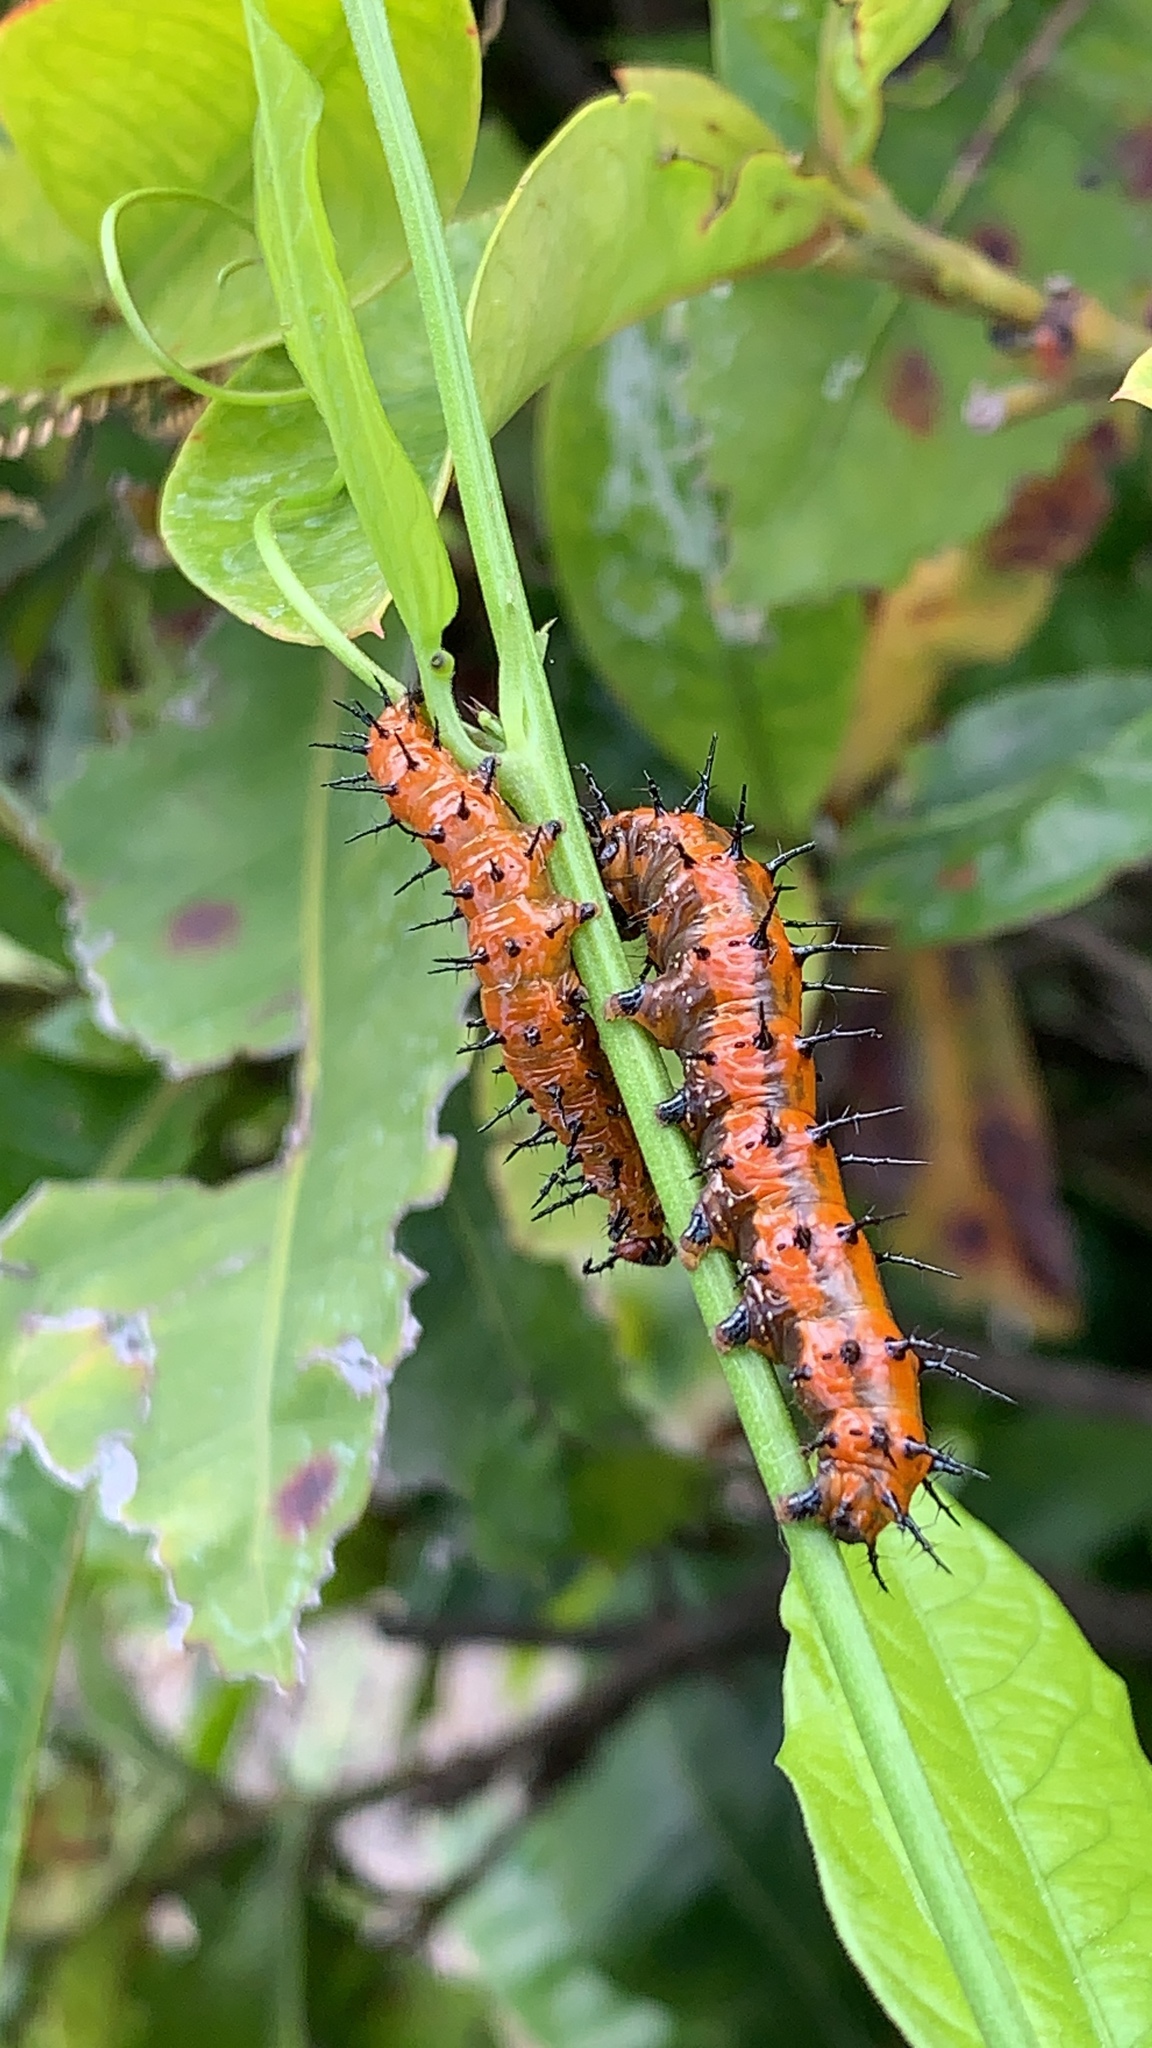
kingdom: Animalia
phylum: Arthropoda
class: Insecta
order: Lepidoptera
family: Nymphalidae
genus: Dione
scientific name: Dione vanillae
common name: Gulf fritillary
